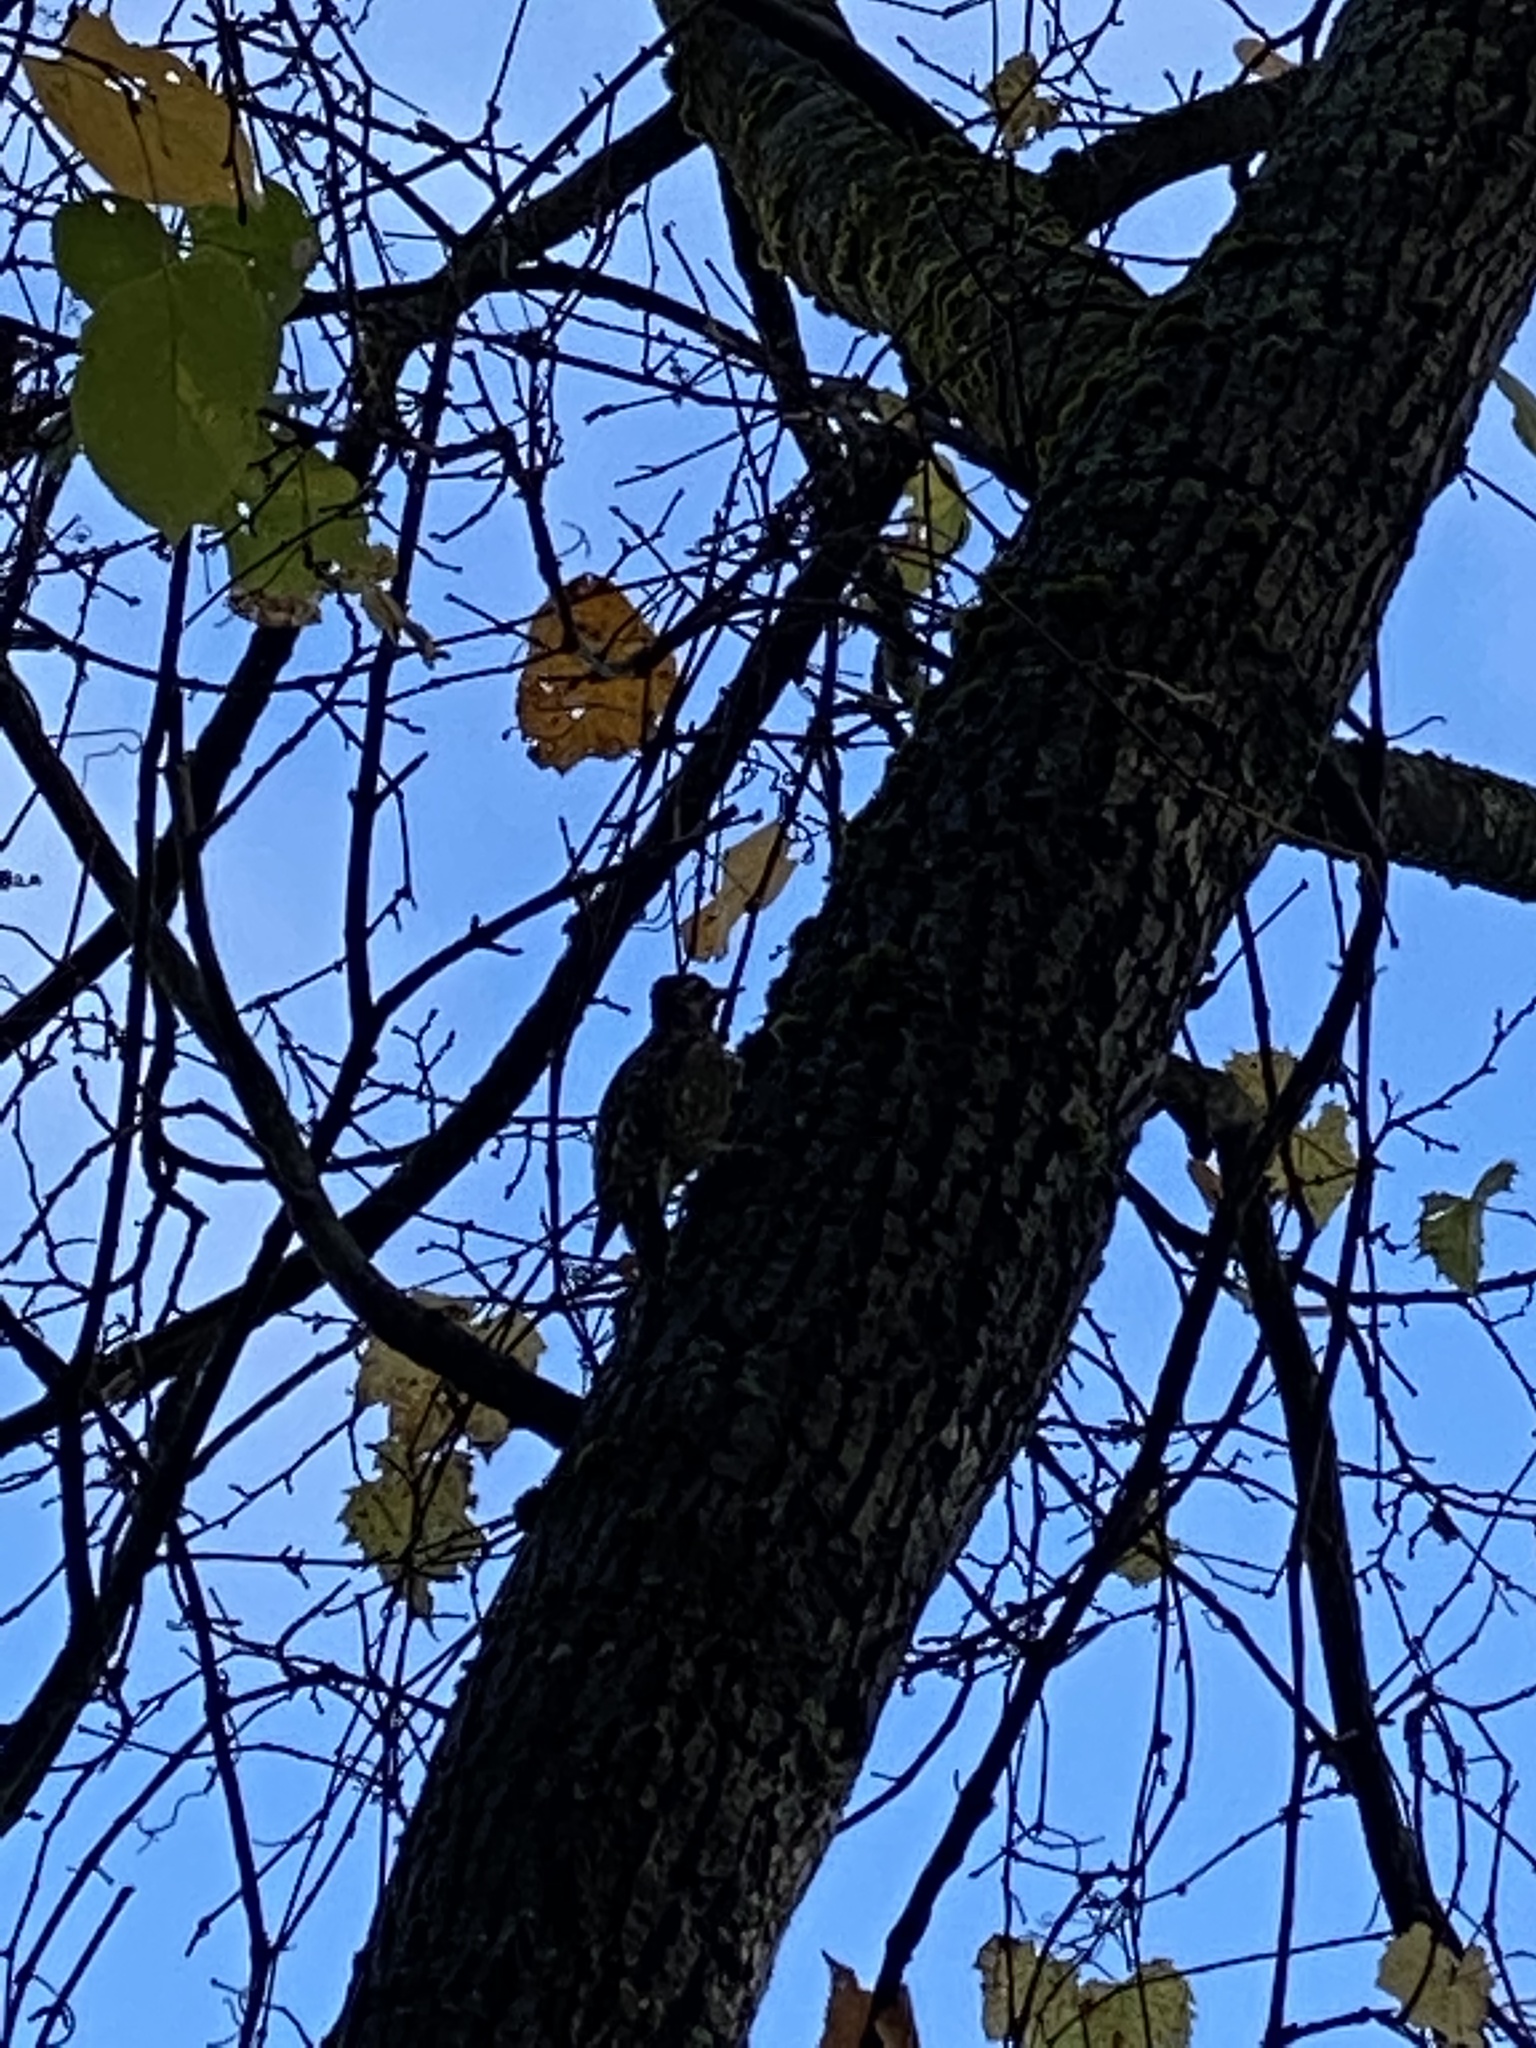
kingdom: Animalia
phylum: Chordata
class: Aves
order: Piciformes
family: Picidae
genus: Sphyrapicus
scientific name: Sphyrapicus varius
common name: Yellow-bellied sapsucker
